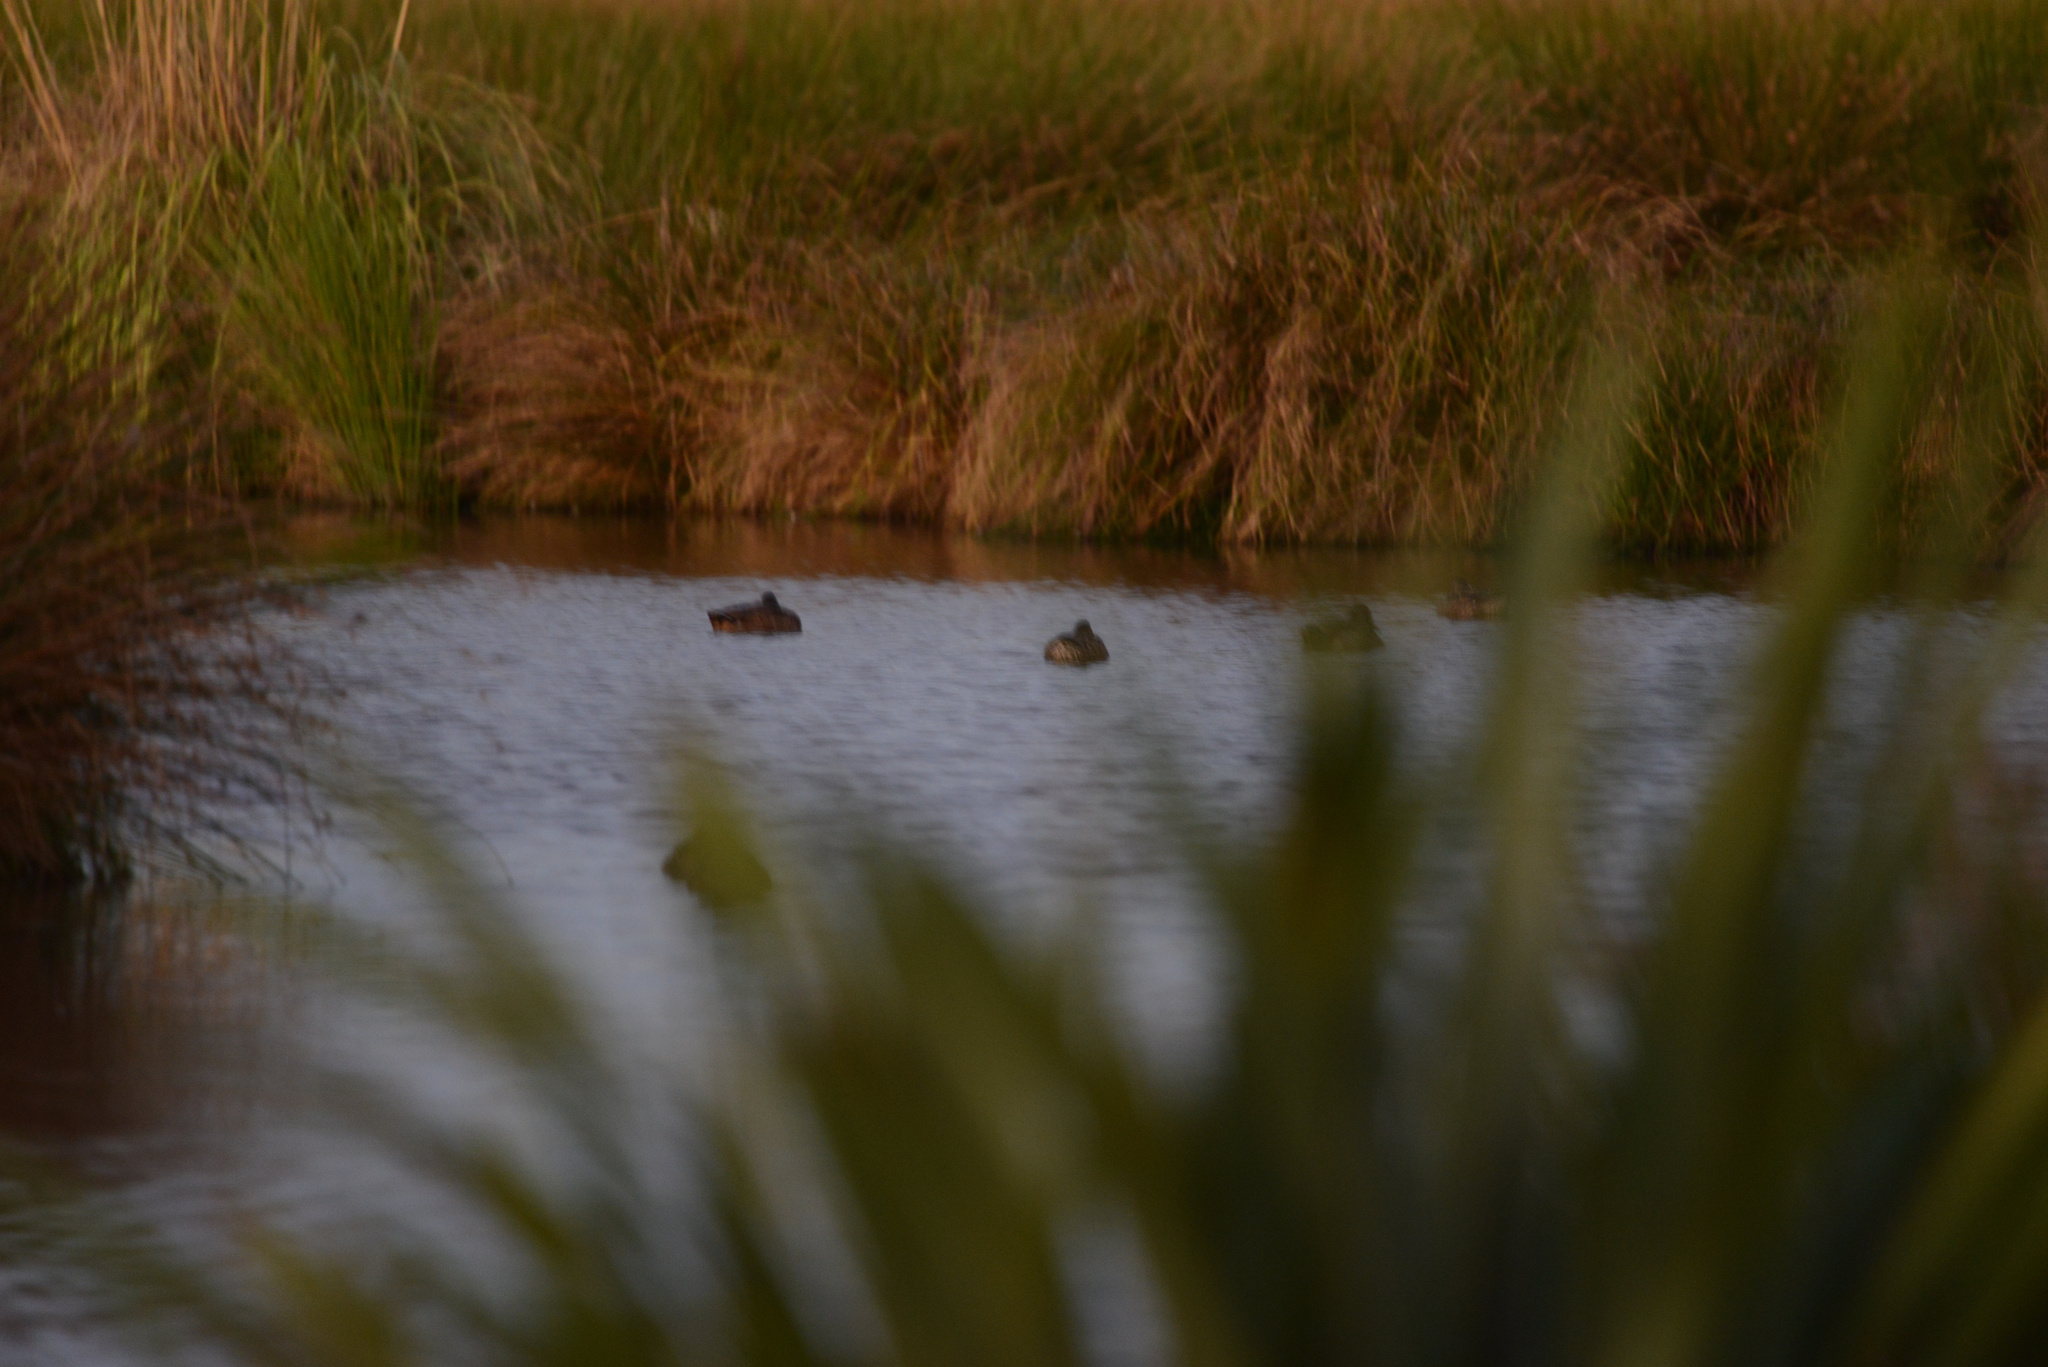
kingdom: Animalia
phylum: Chordata
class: Aves
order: Anseriformes
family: Anatidae
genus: Anas
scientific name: Anas platyrhynchos
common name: Mallard
